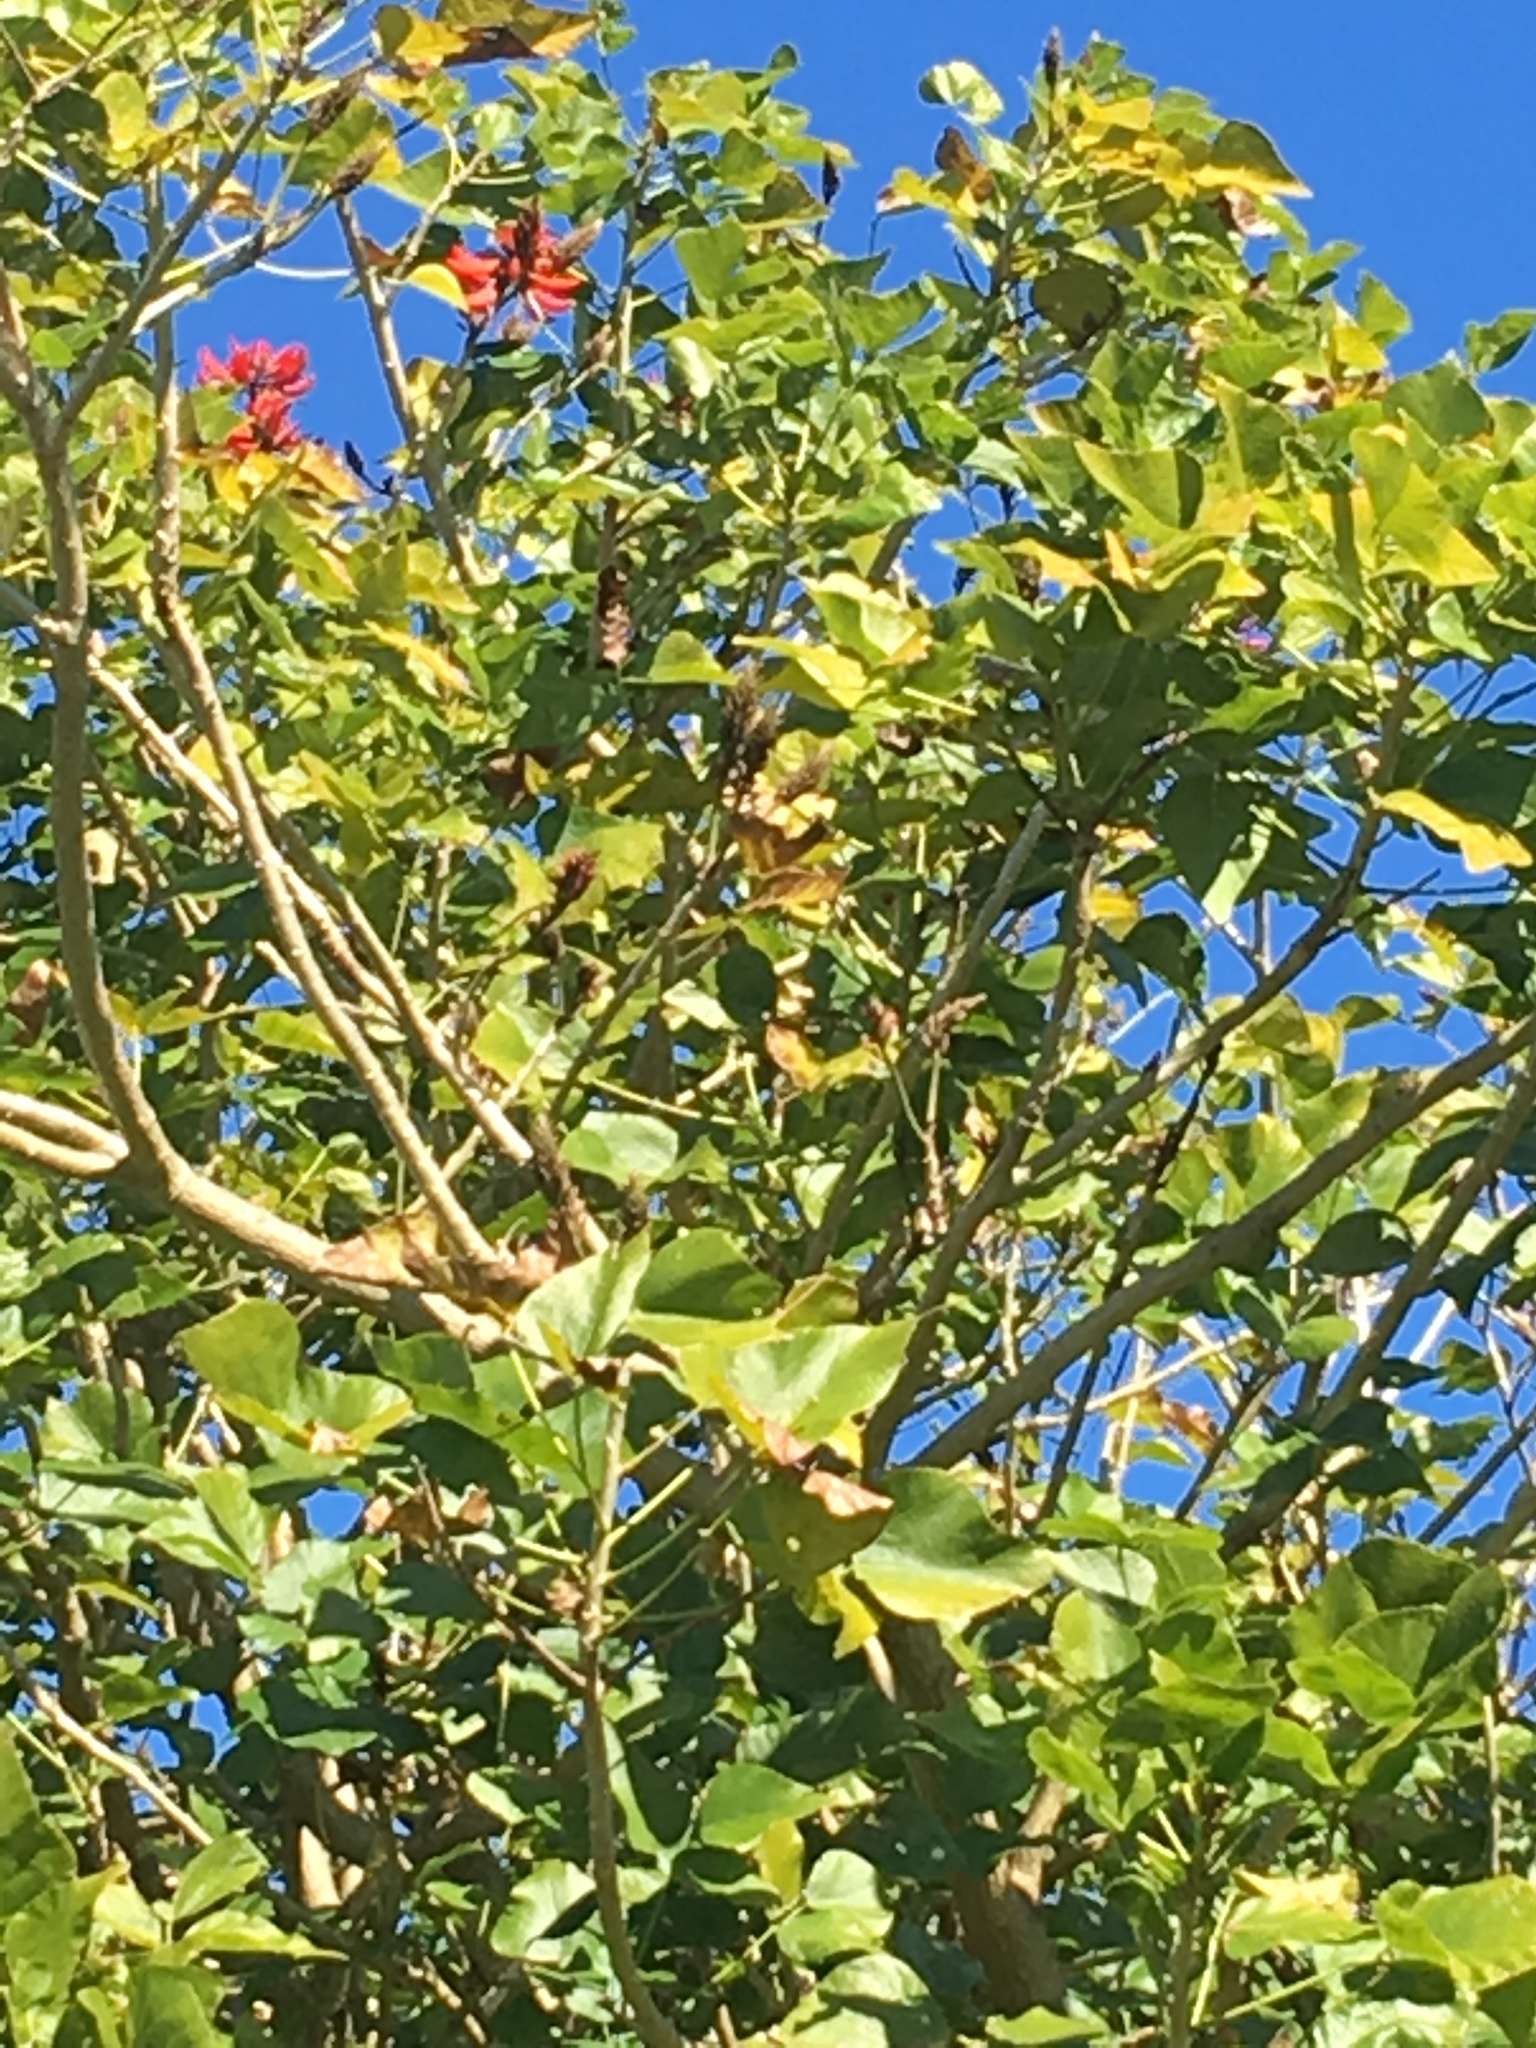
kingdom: Plantae
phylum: Tracheophyta
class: Magnoliopsida
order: Fabales
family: Fabaceae
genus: Erythrina
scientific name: Erythrina sykesii
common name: Coraltree
